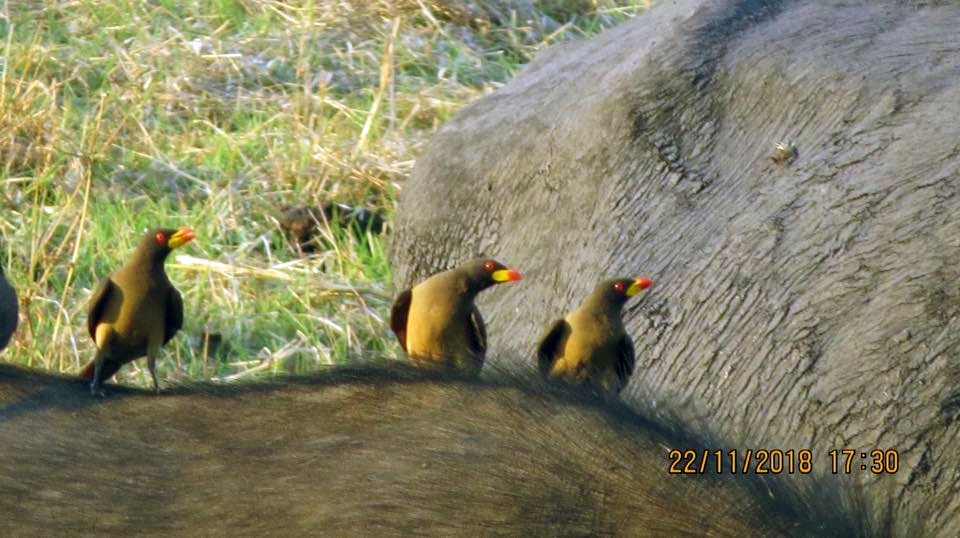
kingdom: Animalia
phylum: Chordata
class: Aves
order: Passeriformes
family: Buphagidae
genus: Buphagus
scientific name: Buphagus africanus
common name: Yellow-billed oxpecker
